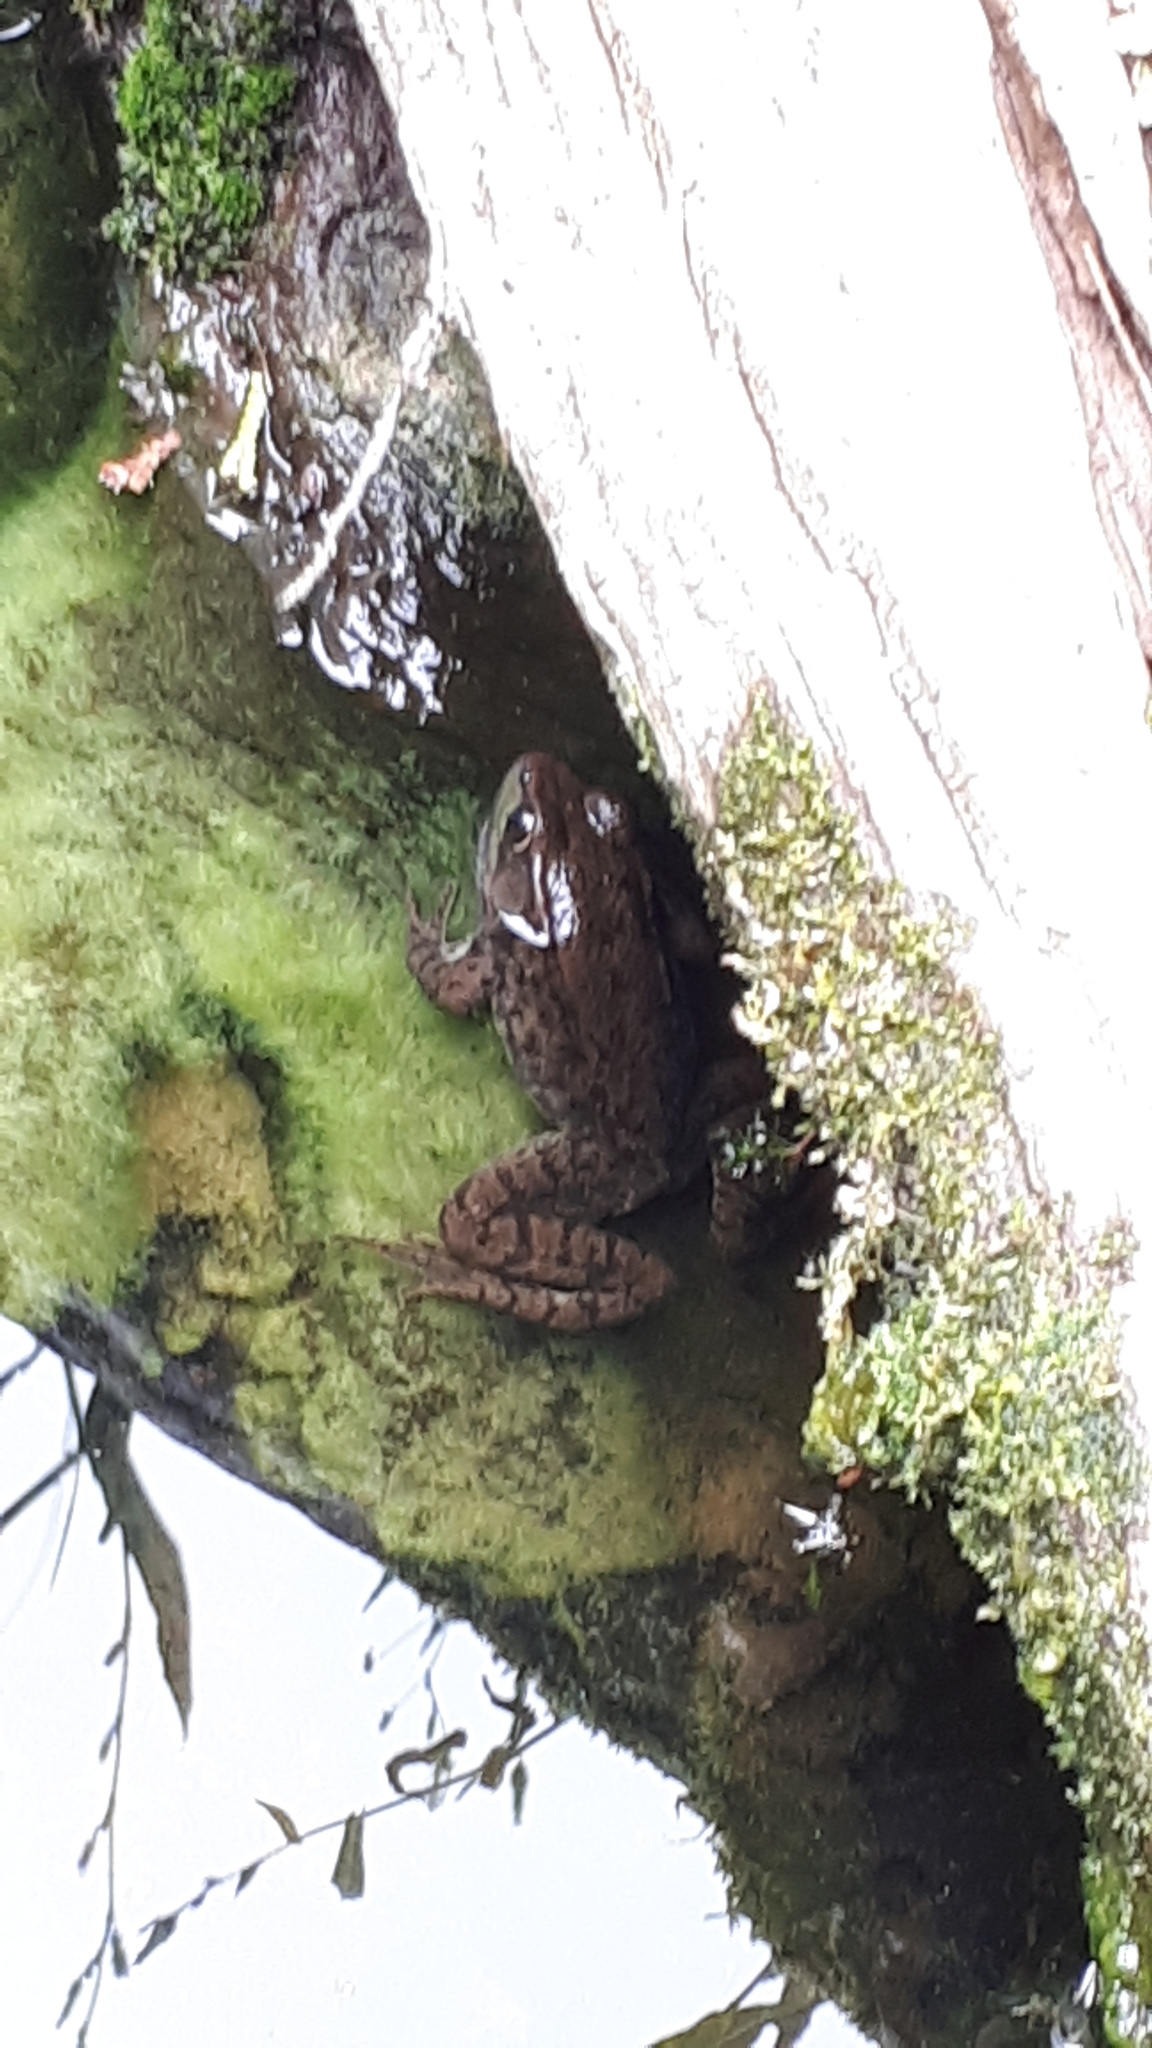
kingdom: Animalia
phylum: Chordata
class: Amphibia
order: Anura
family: Ranidae
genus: Lithobates
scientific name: Lithobates clamitans
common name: Green frog
